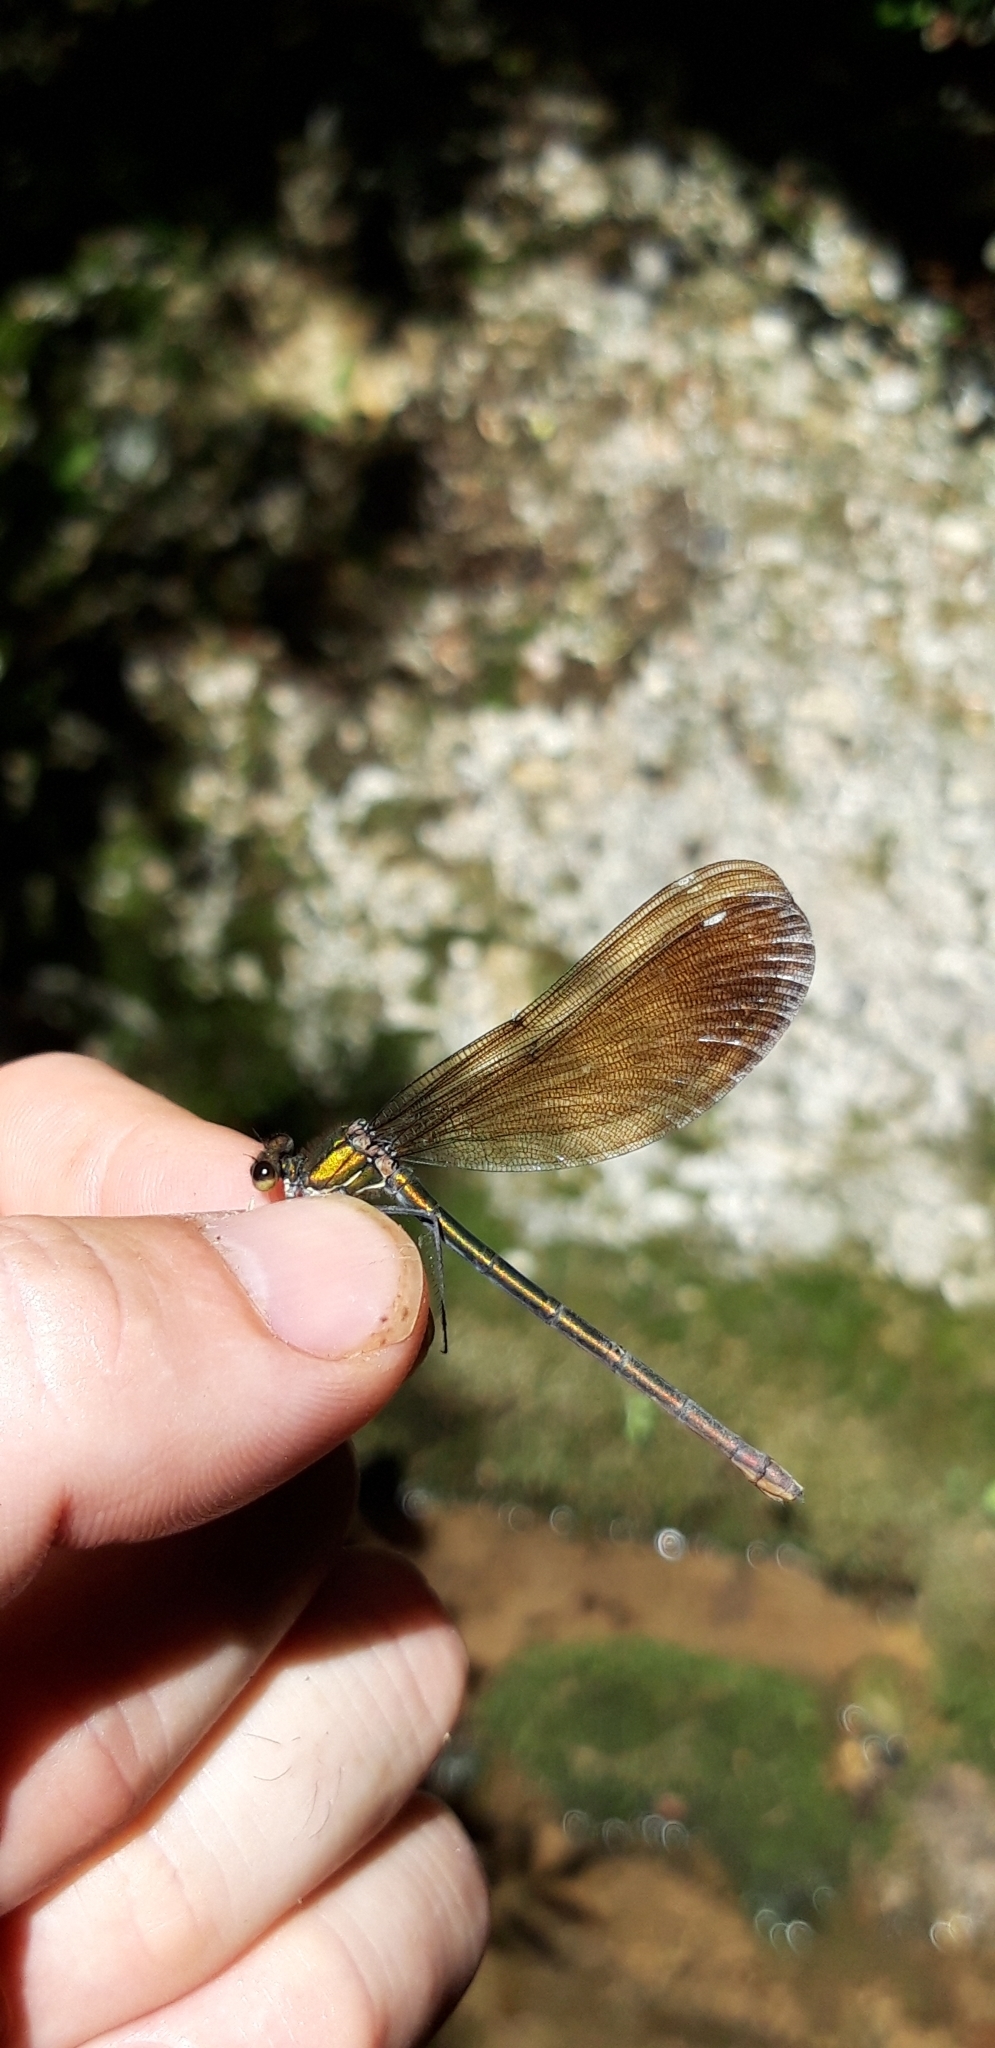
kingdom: Animalia
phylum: Arthropoda
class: Insecta
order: Odonata
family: Calopterygidae
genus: Calopteryx
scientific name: Calopteryx virgo
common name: Beautiful demoiselle
